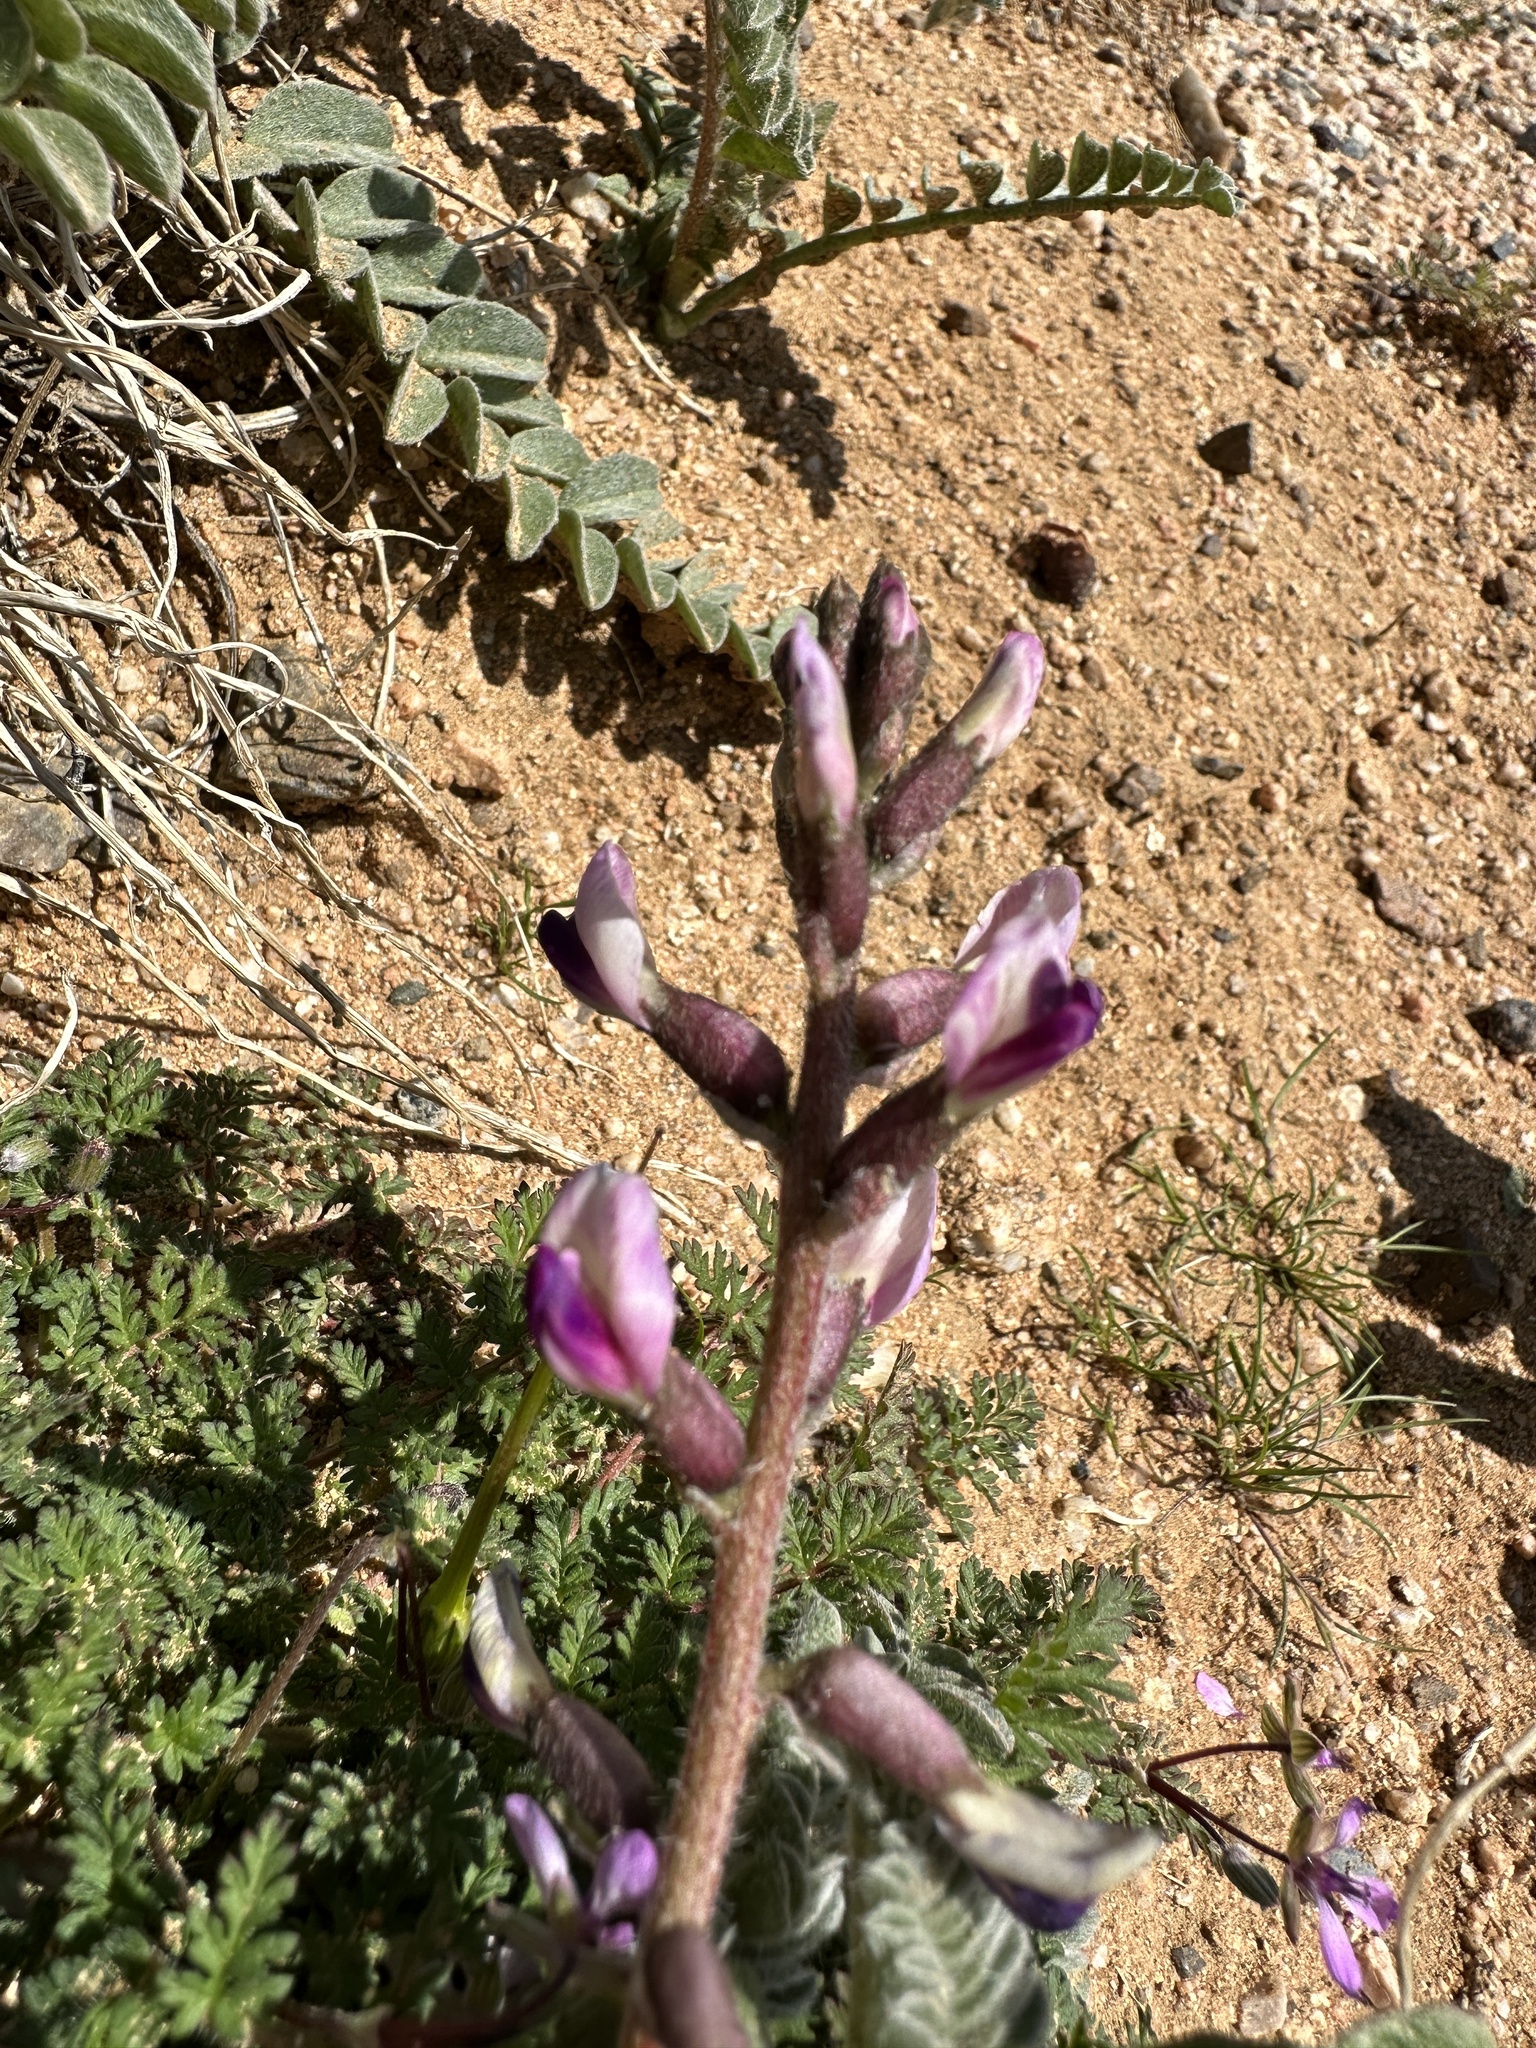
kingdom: Plantae
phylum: Tracheophyta
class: Magnoliopsida
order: Fabales
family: Fabaceae
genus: Astragalus
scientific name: Astragalus layneae
